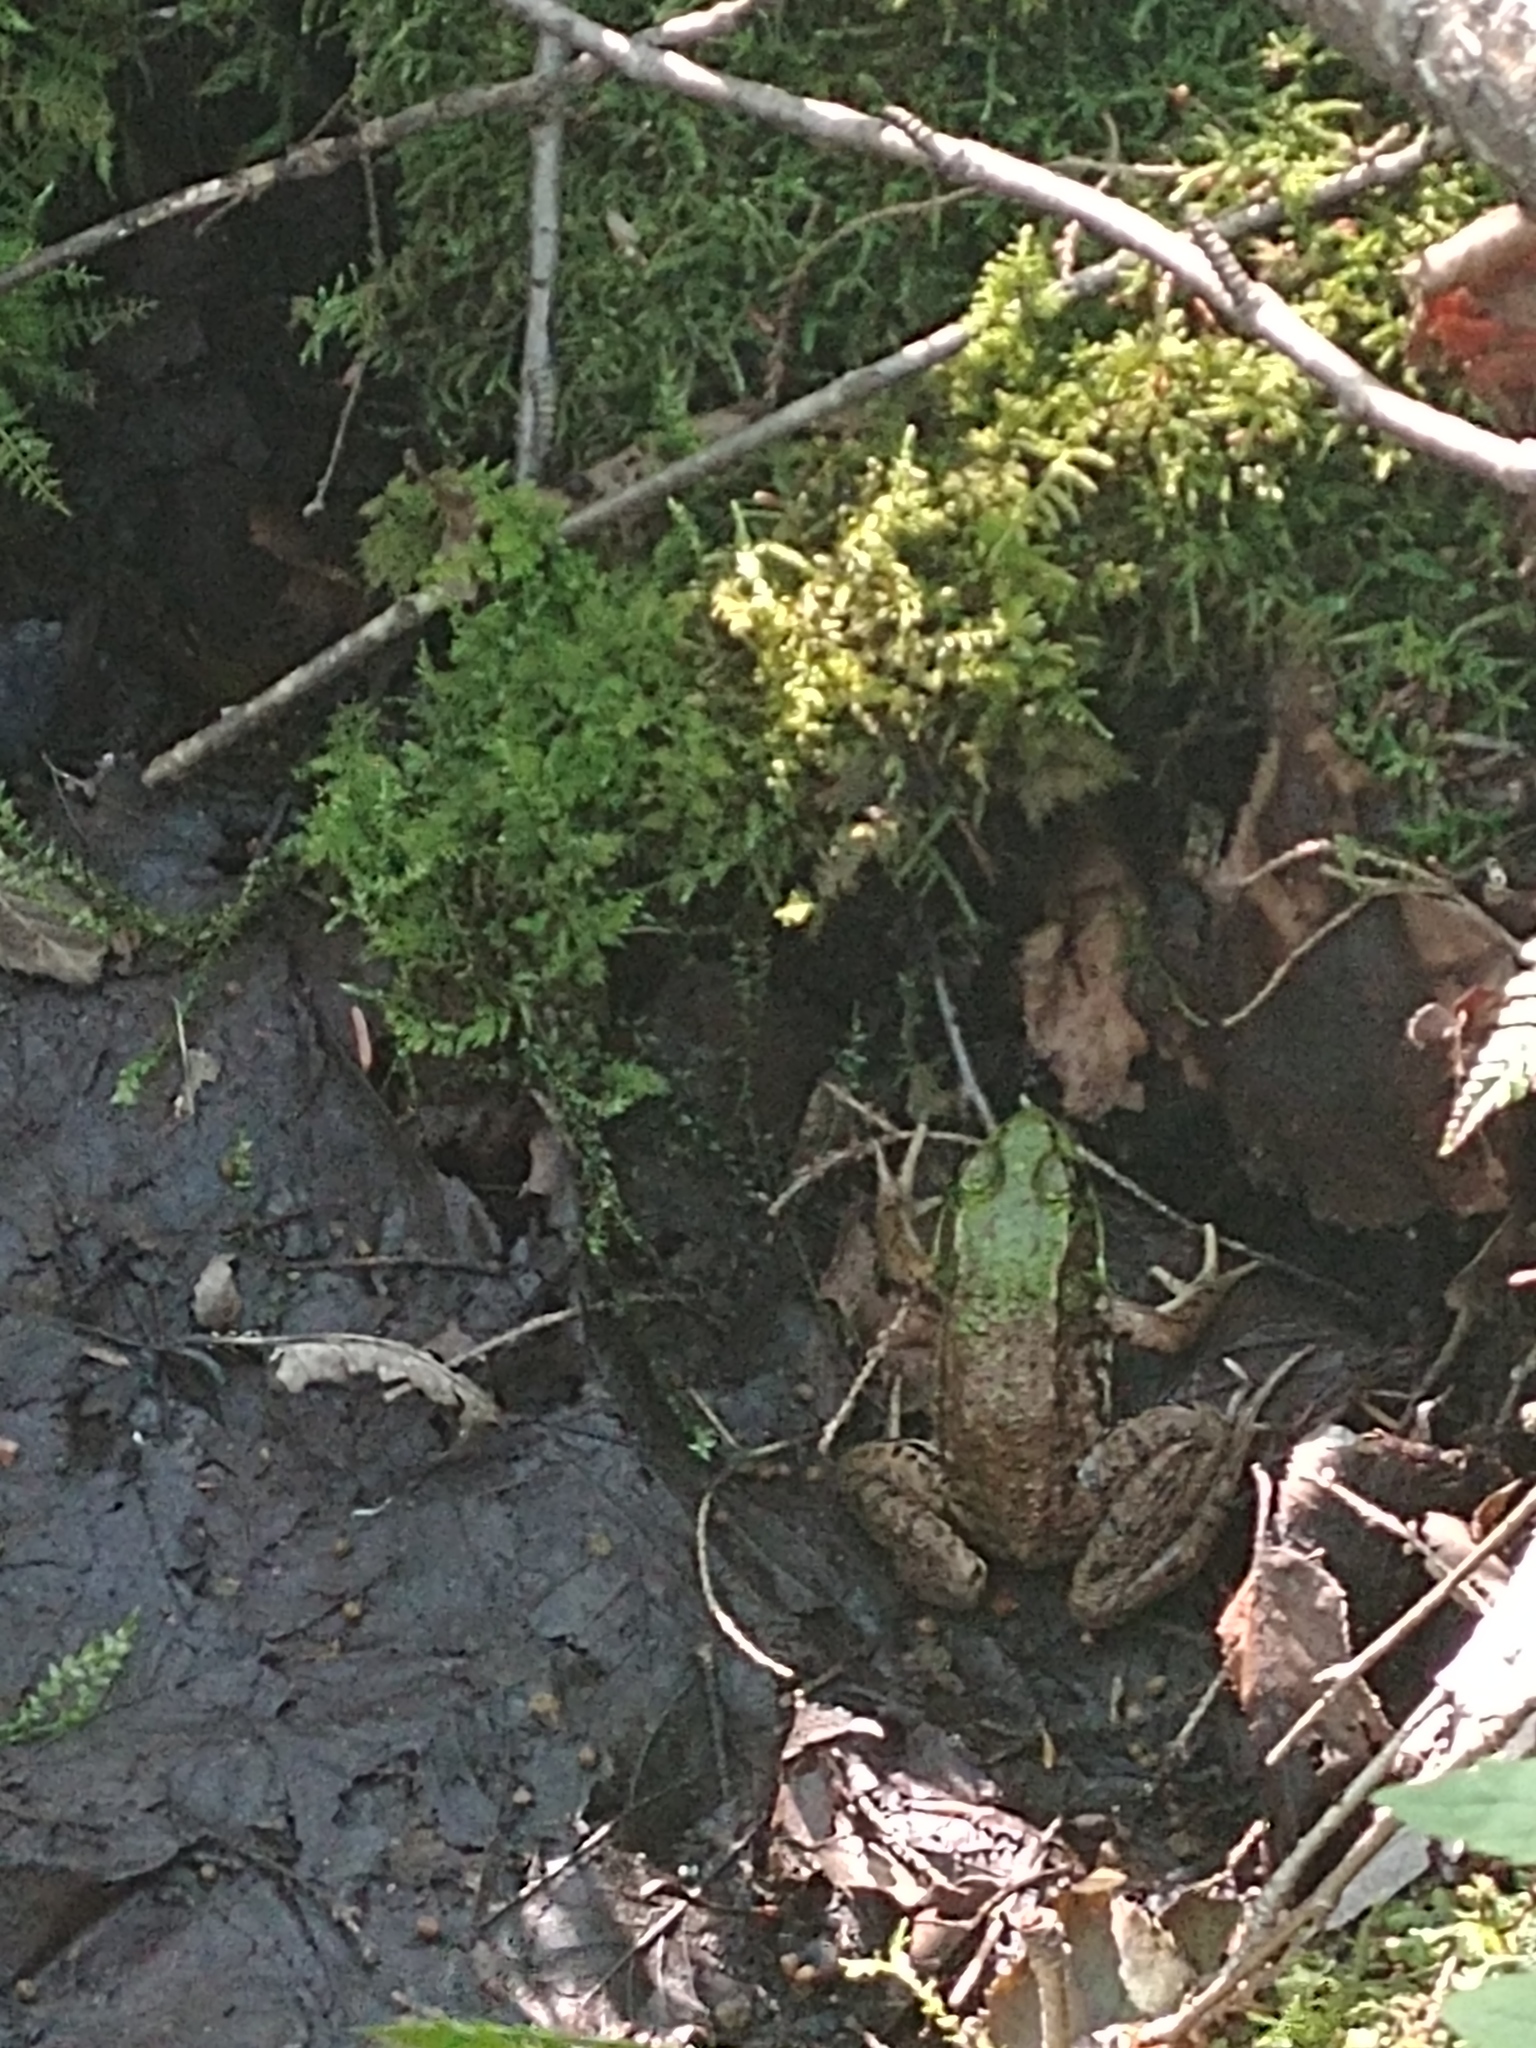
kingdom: Animalia
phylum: Chordata
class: Amphibia
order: Anura
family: Ranidae
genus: Lithobates
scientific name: Lithobates clamitans
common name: Green frog
